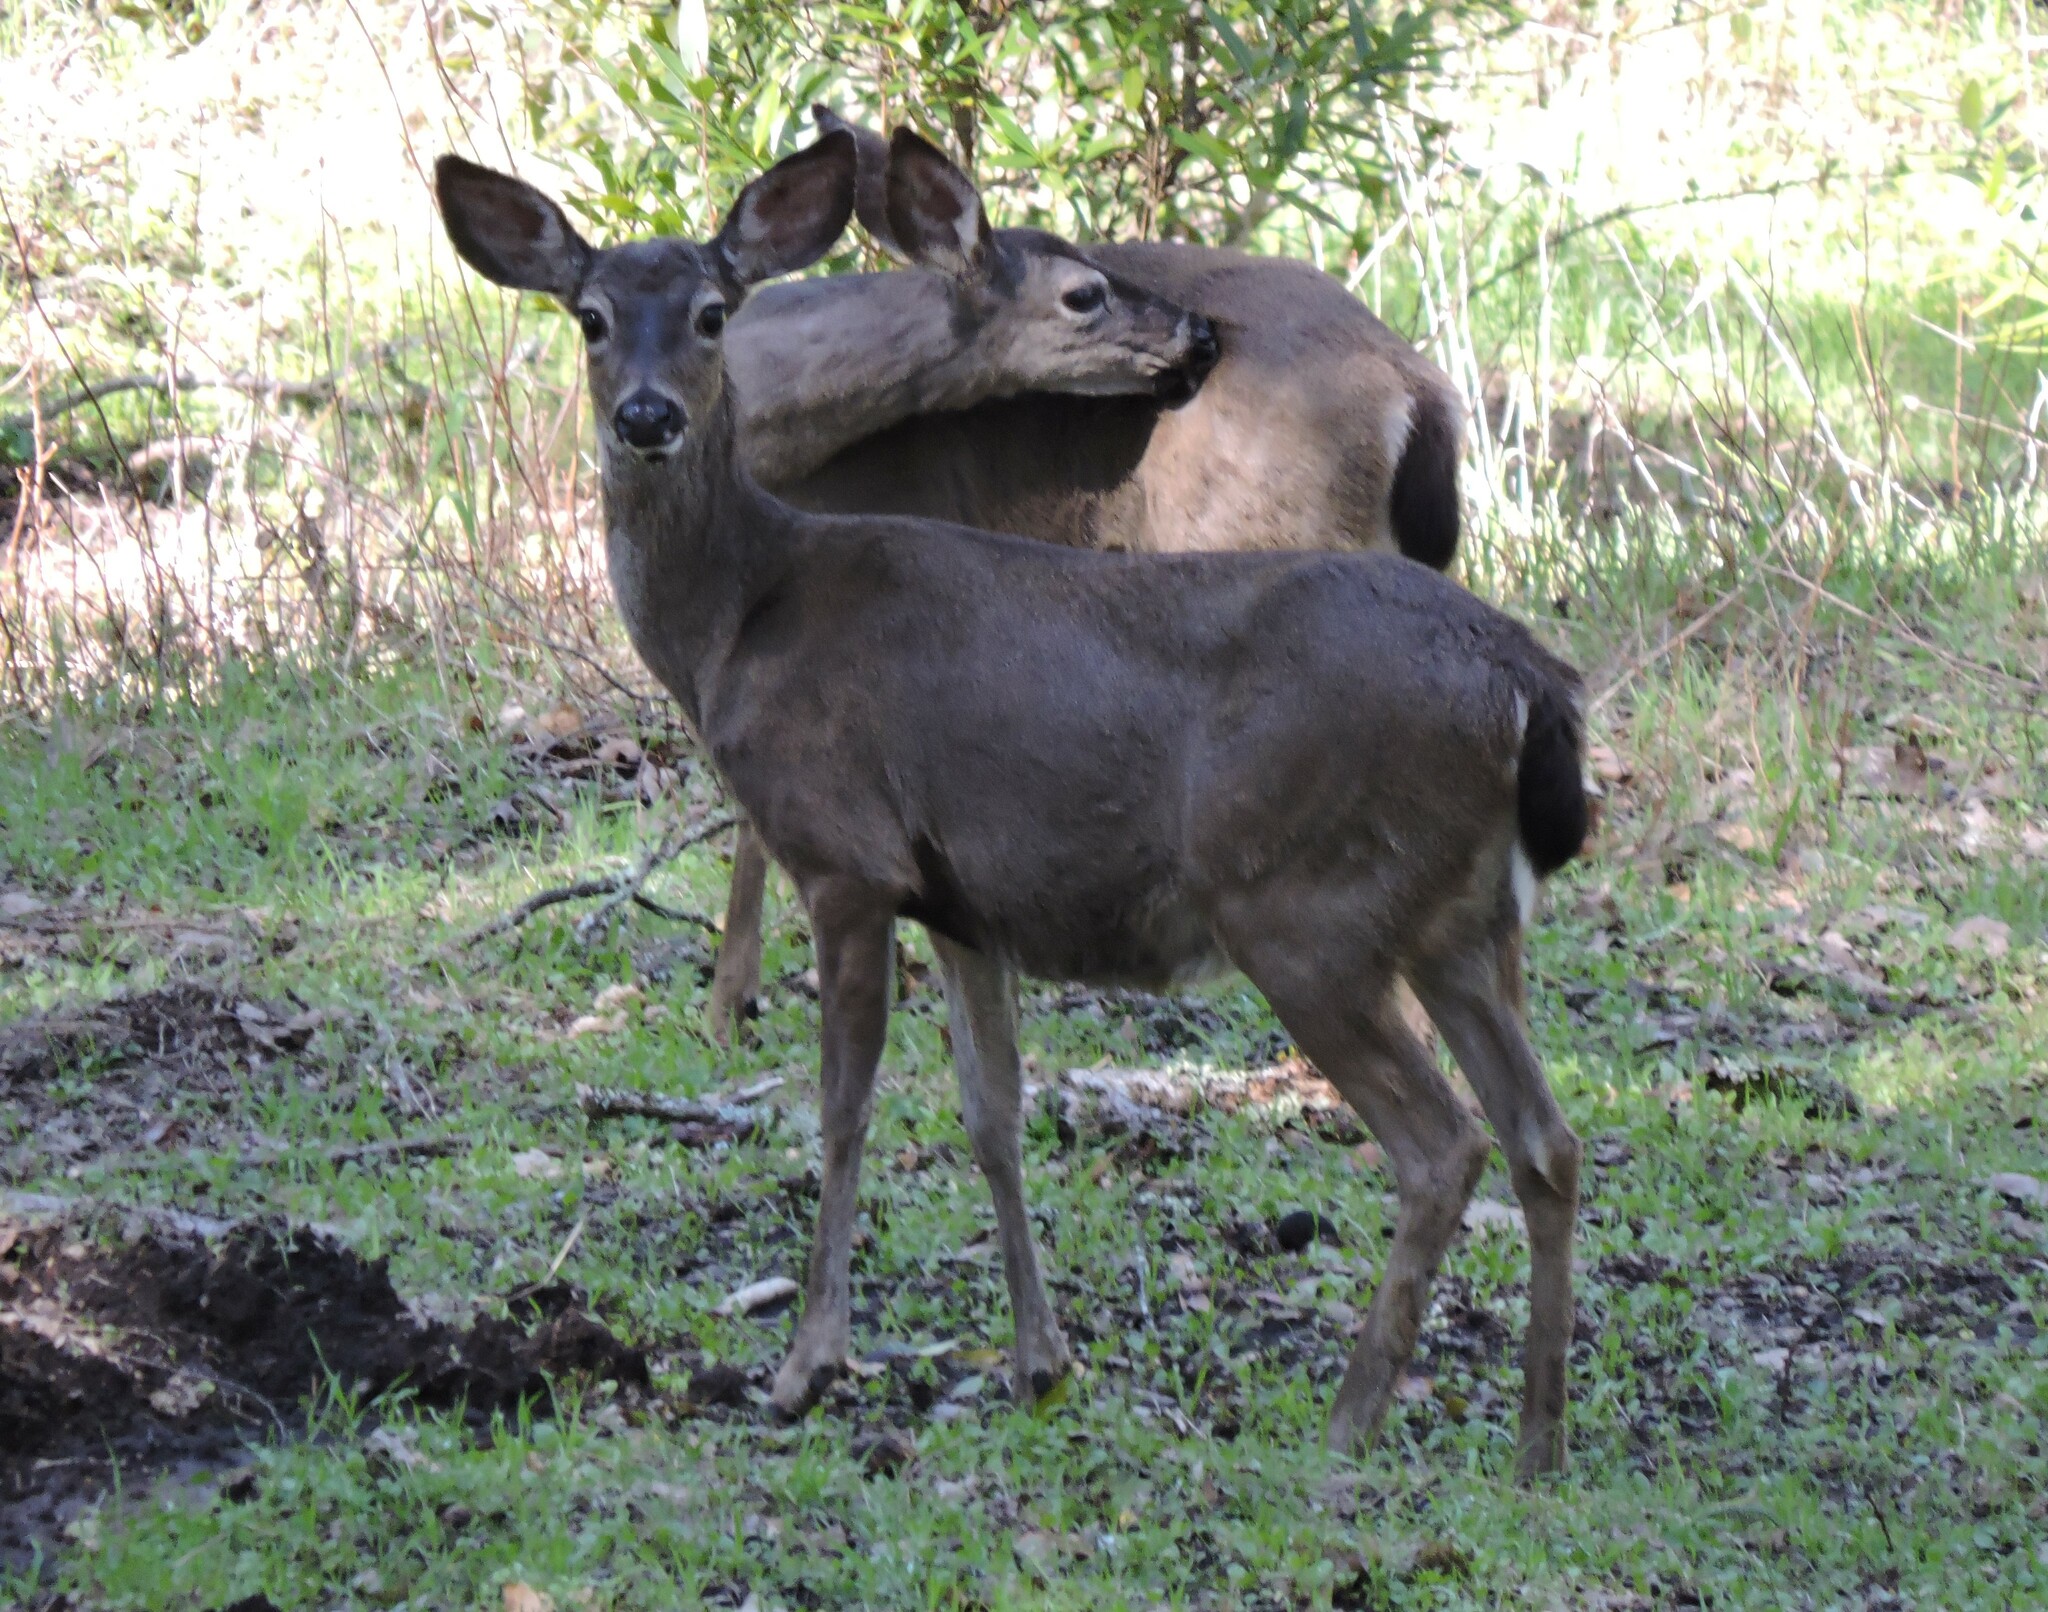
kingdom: Animalia
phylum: Chordata
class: Mammalia
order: Artiodactyla
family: Cervidae
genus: Odocoileus
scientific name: Odocoileus hemionus
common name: Mule deer
